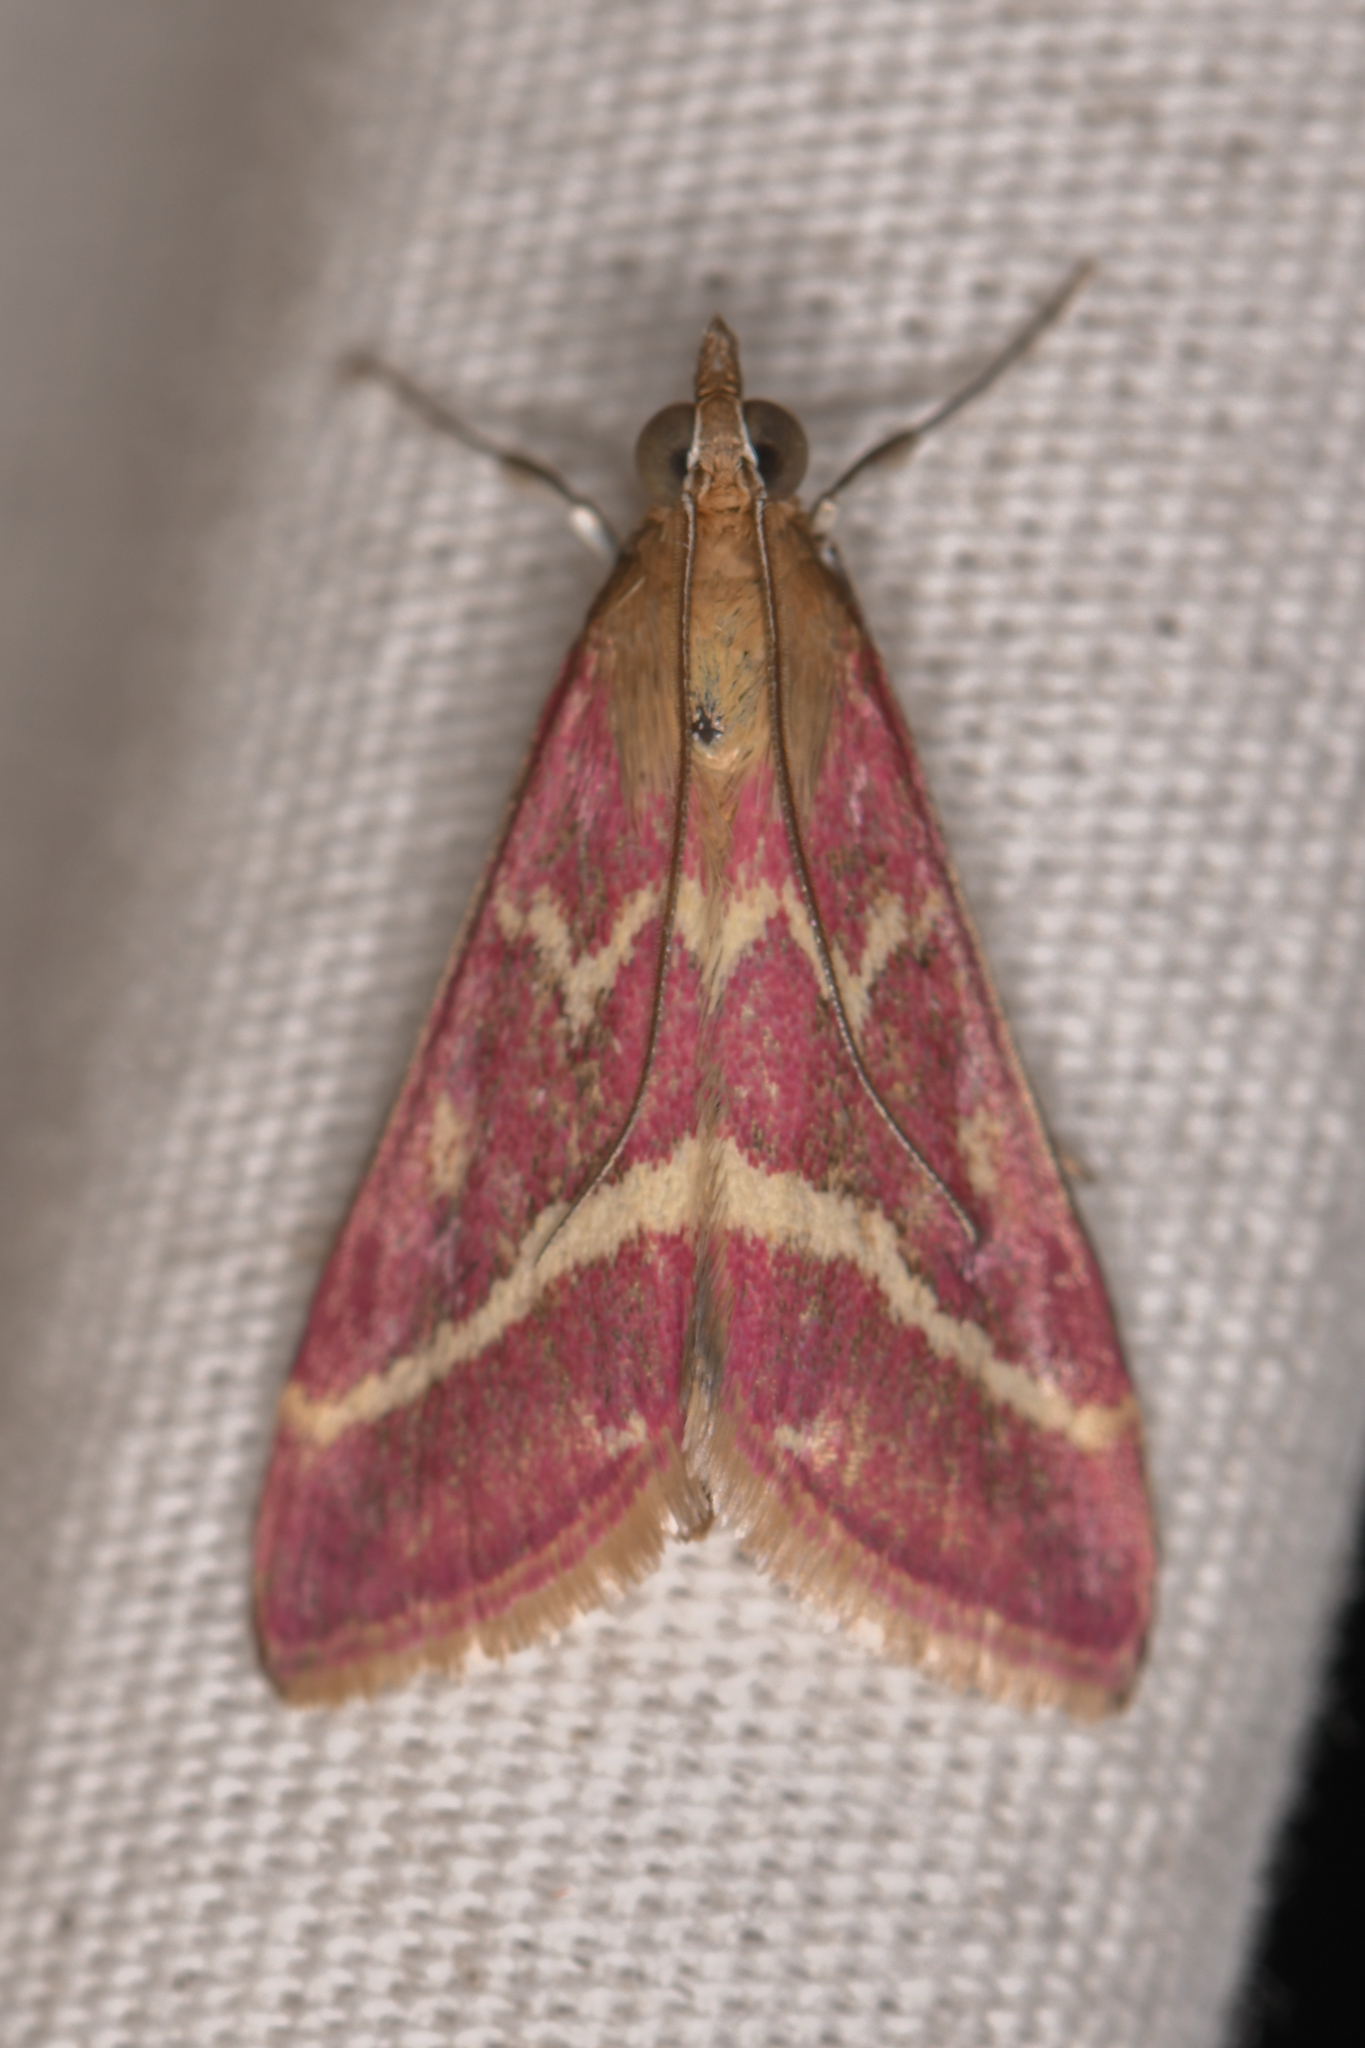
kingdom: Animalia
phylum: Arthropoda
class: Insecta
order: Lepidoptera
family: Crambidae
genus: Pyrausta
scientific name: Pyrausta volupialis
